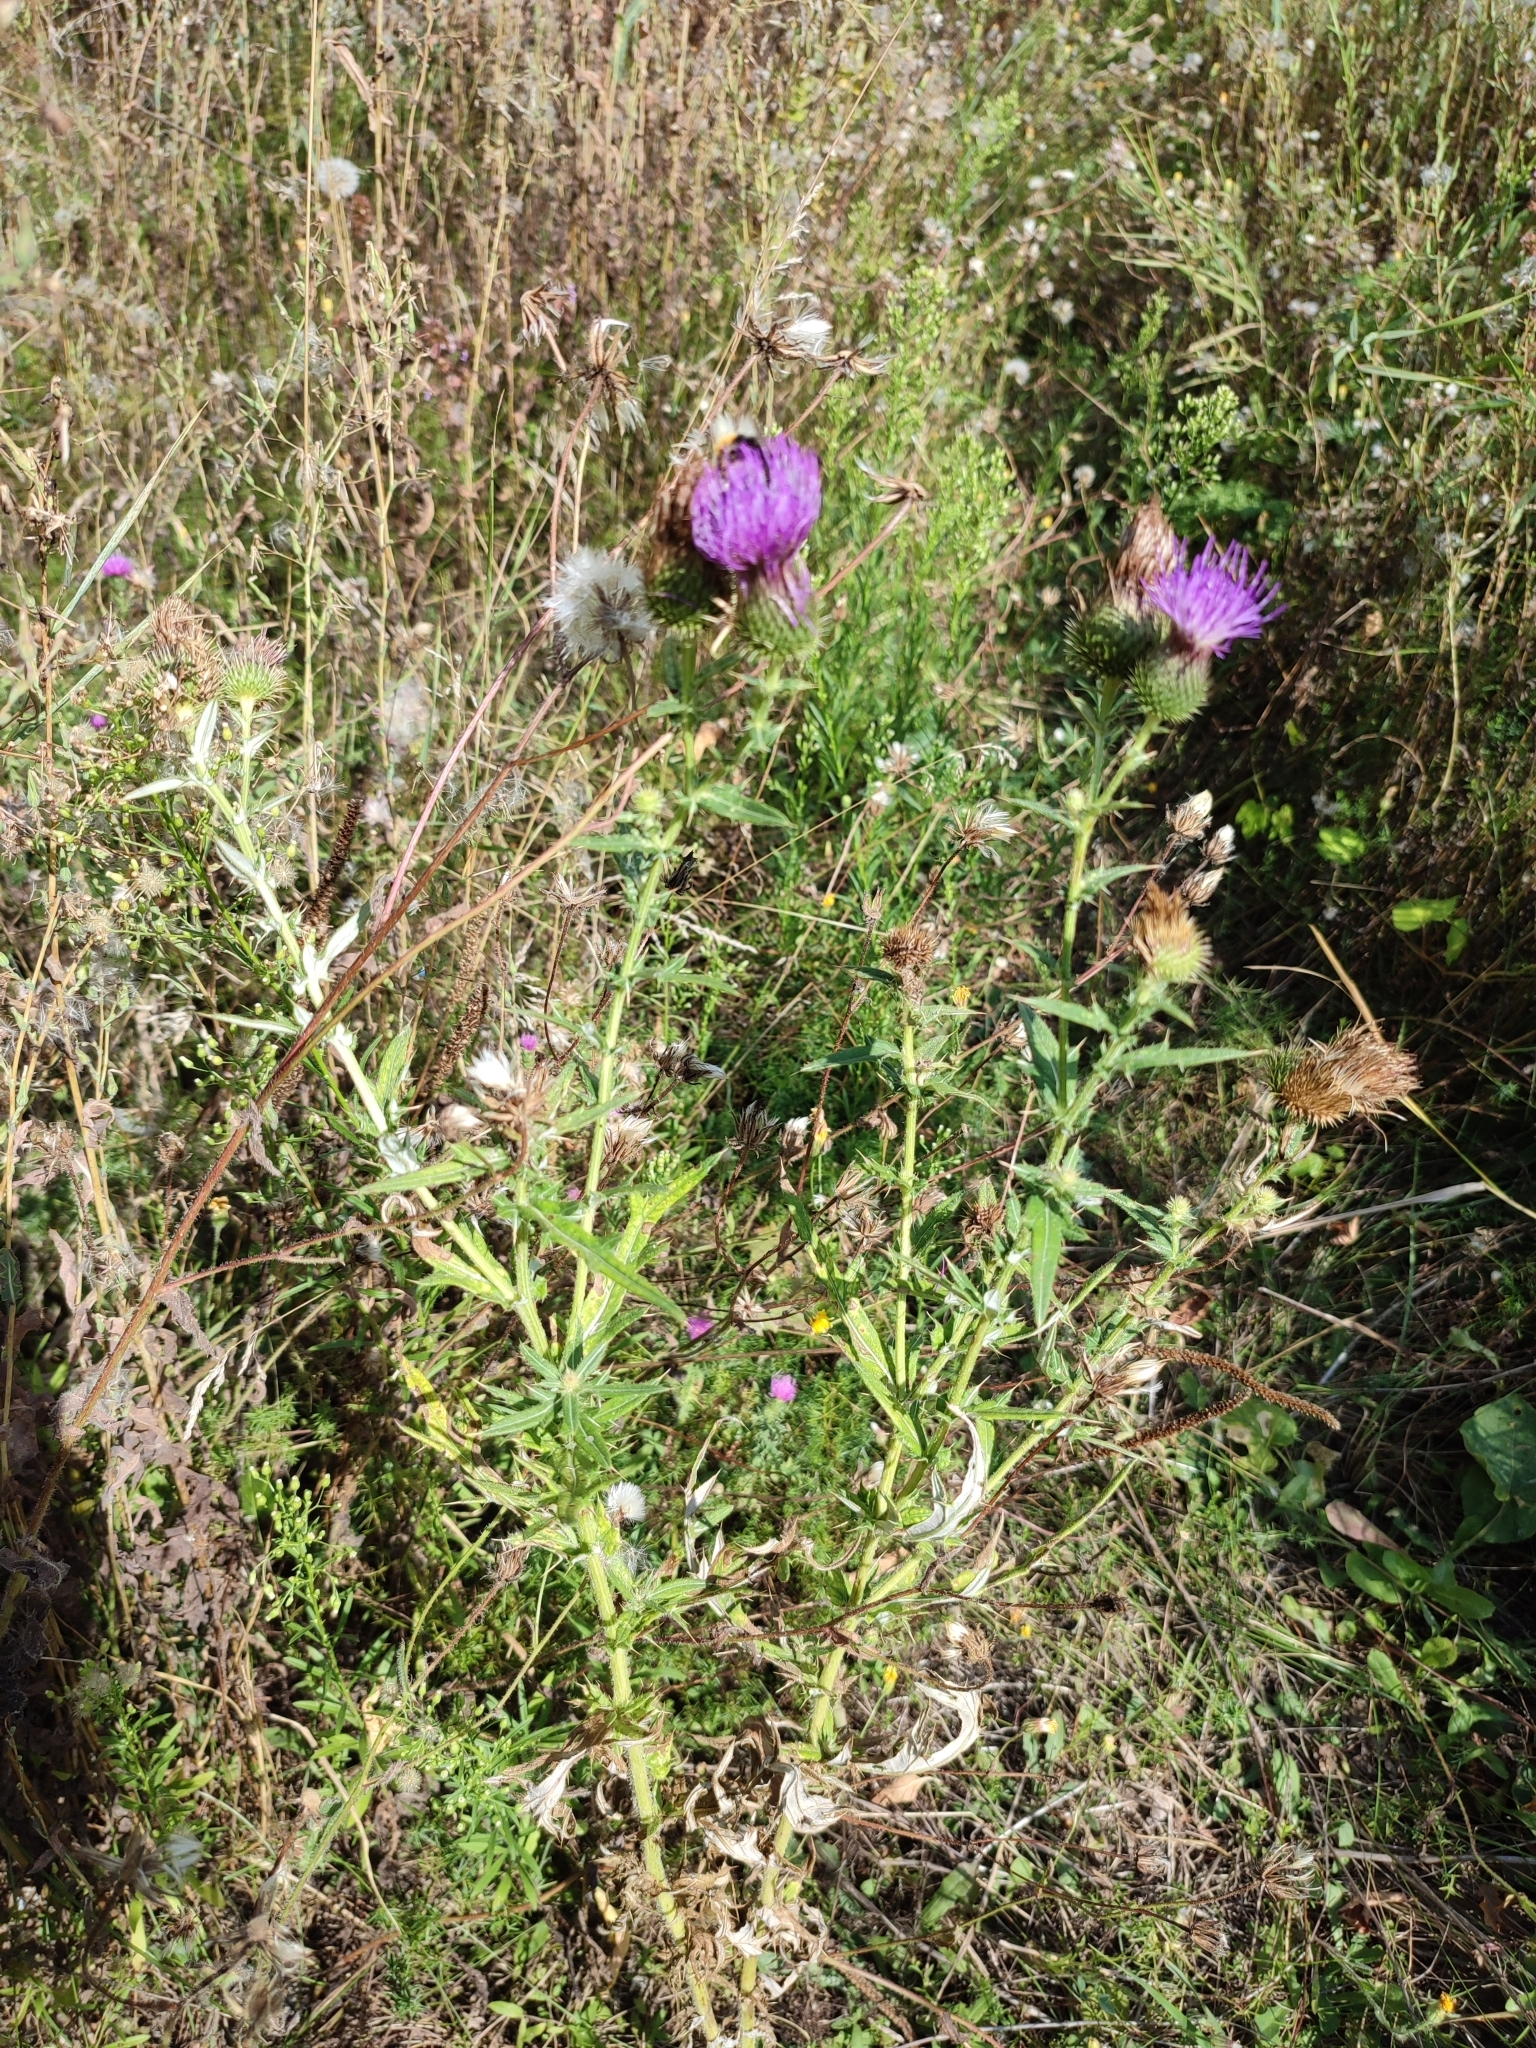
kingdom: Plantae
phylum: Tracheophyta
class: Magnoliopsida
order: Asterales
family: Asteraceae
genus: Lophiolepis
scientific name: Lophiolepis ukranica
